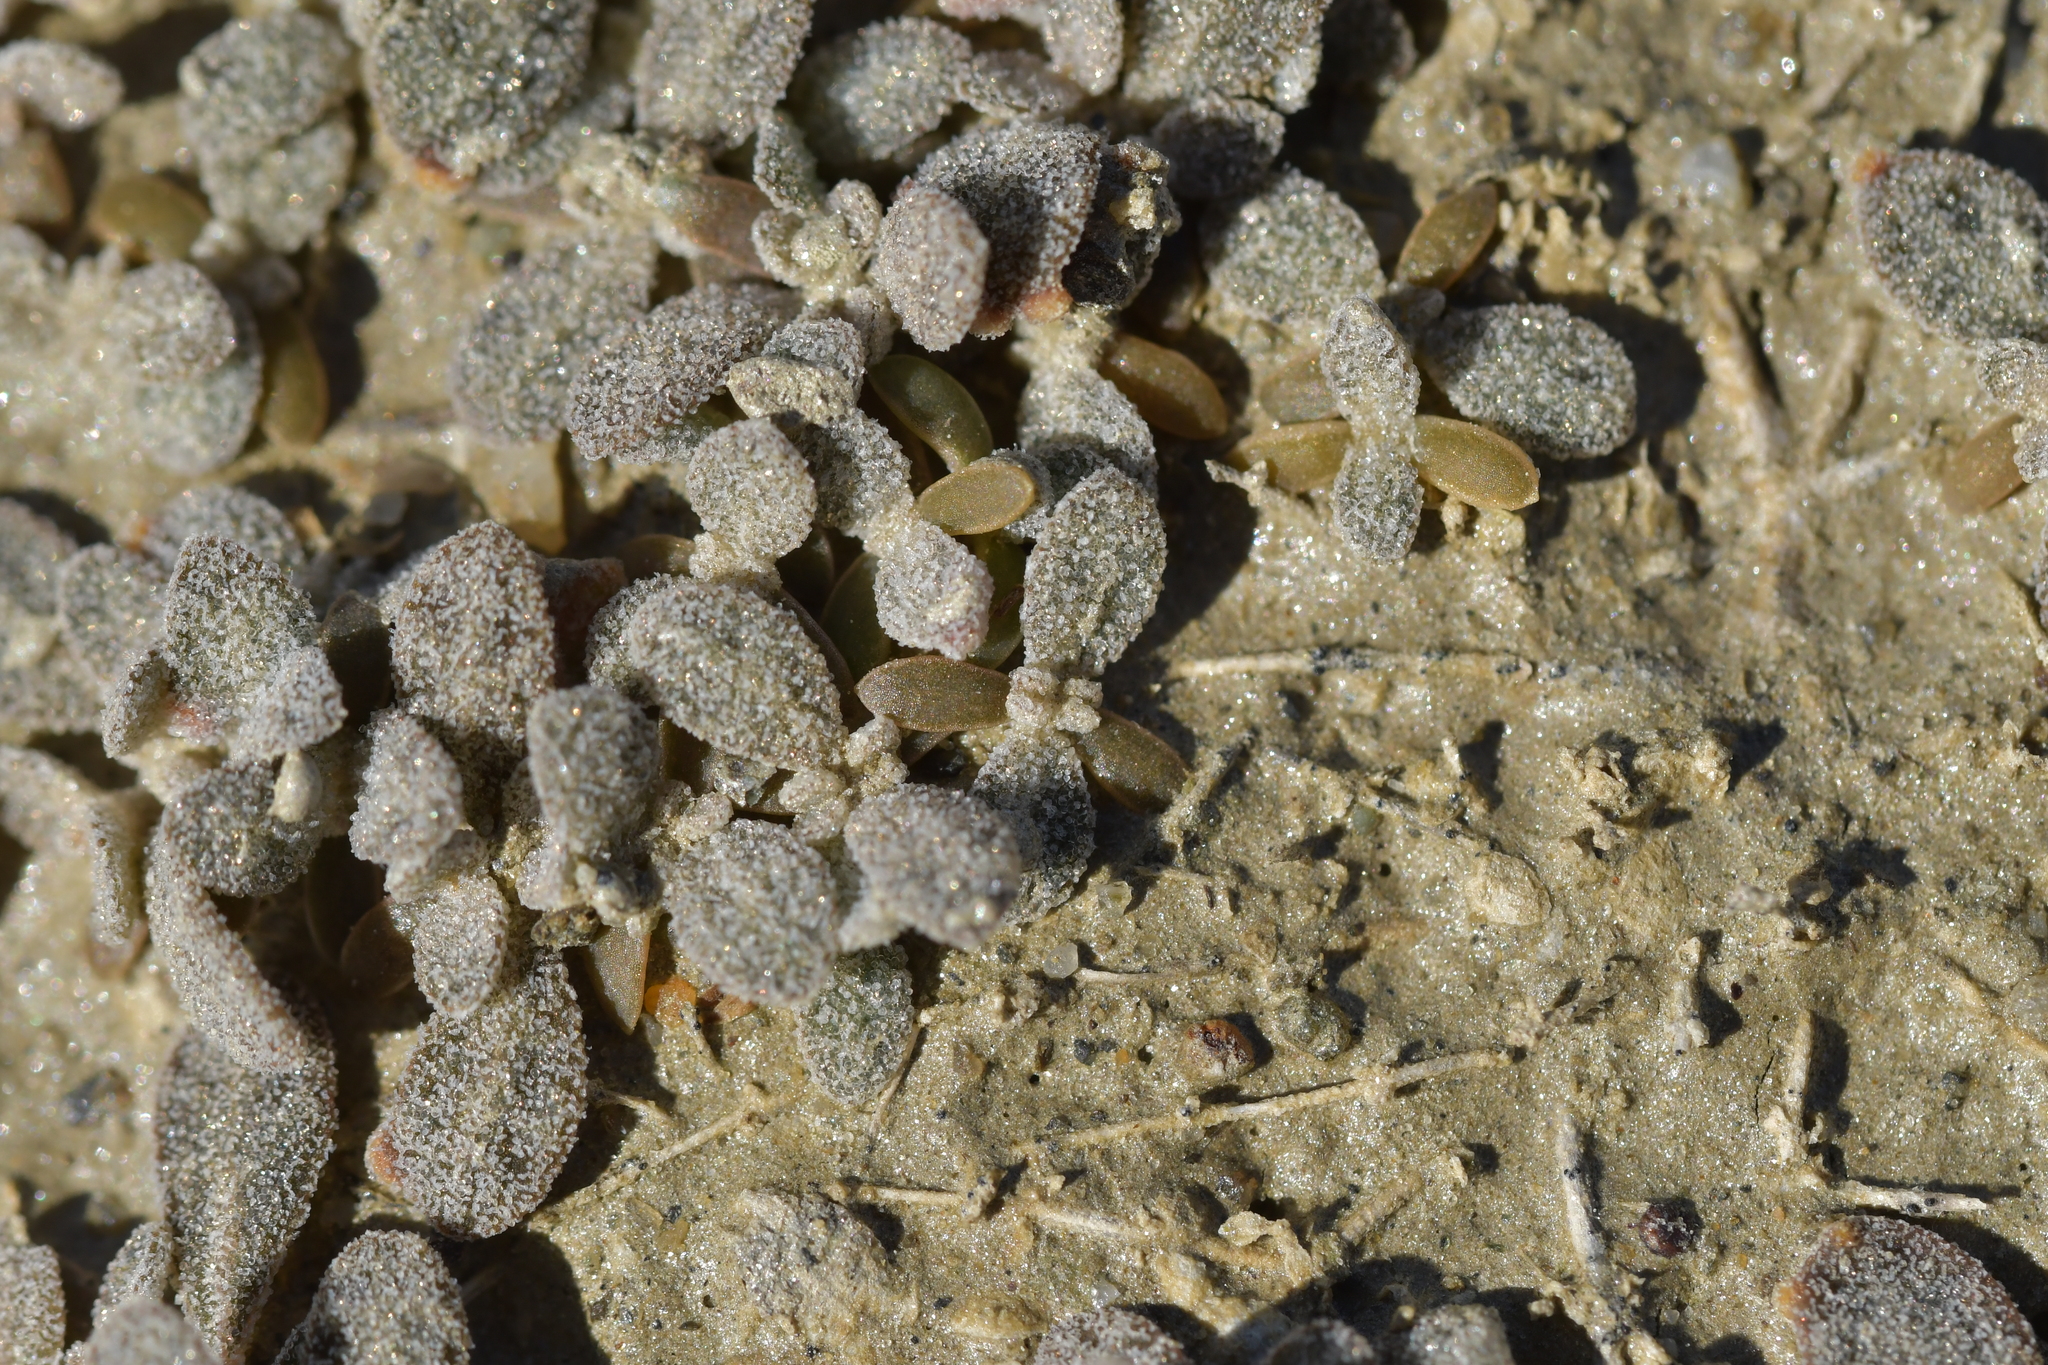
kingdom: Plantae
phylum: Tracheophyta
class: Magnoliopsida
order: Caryophyllales
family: Amaranthaceae
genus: Atriplex
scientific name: Atriplex buchananii
